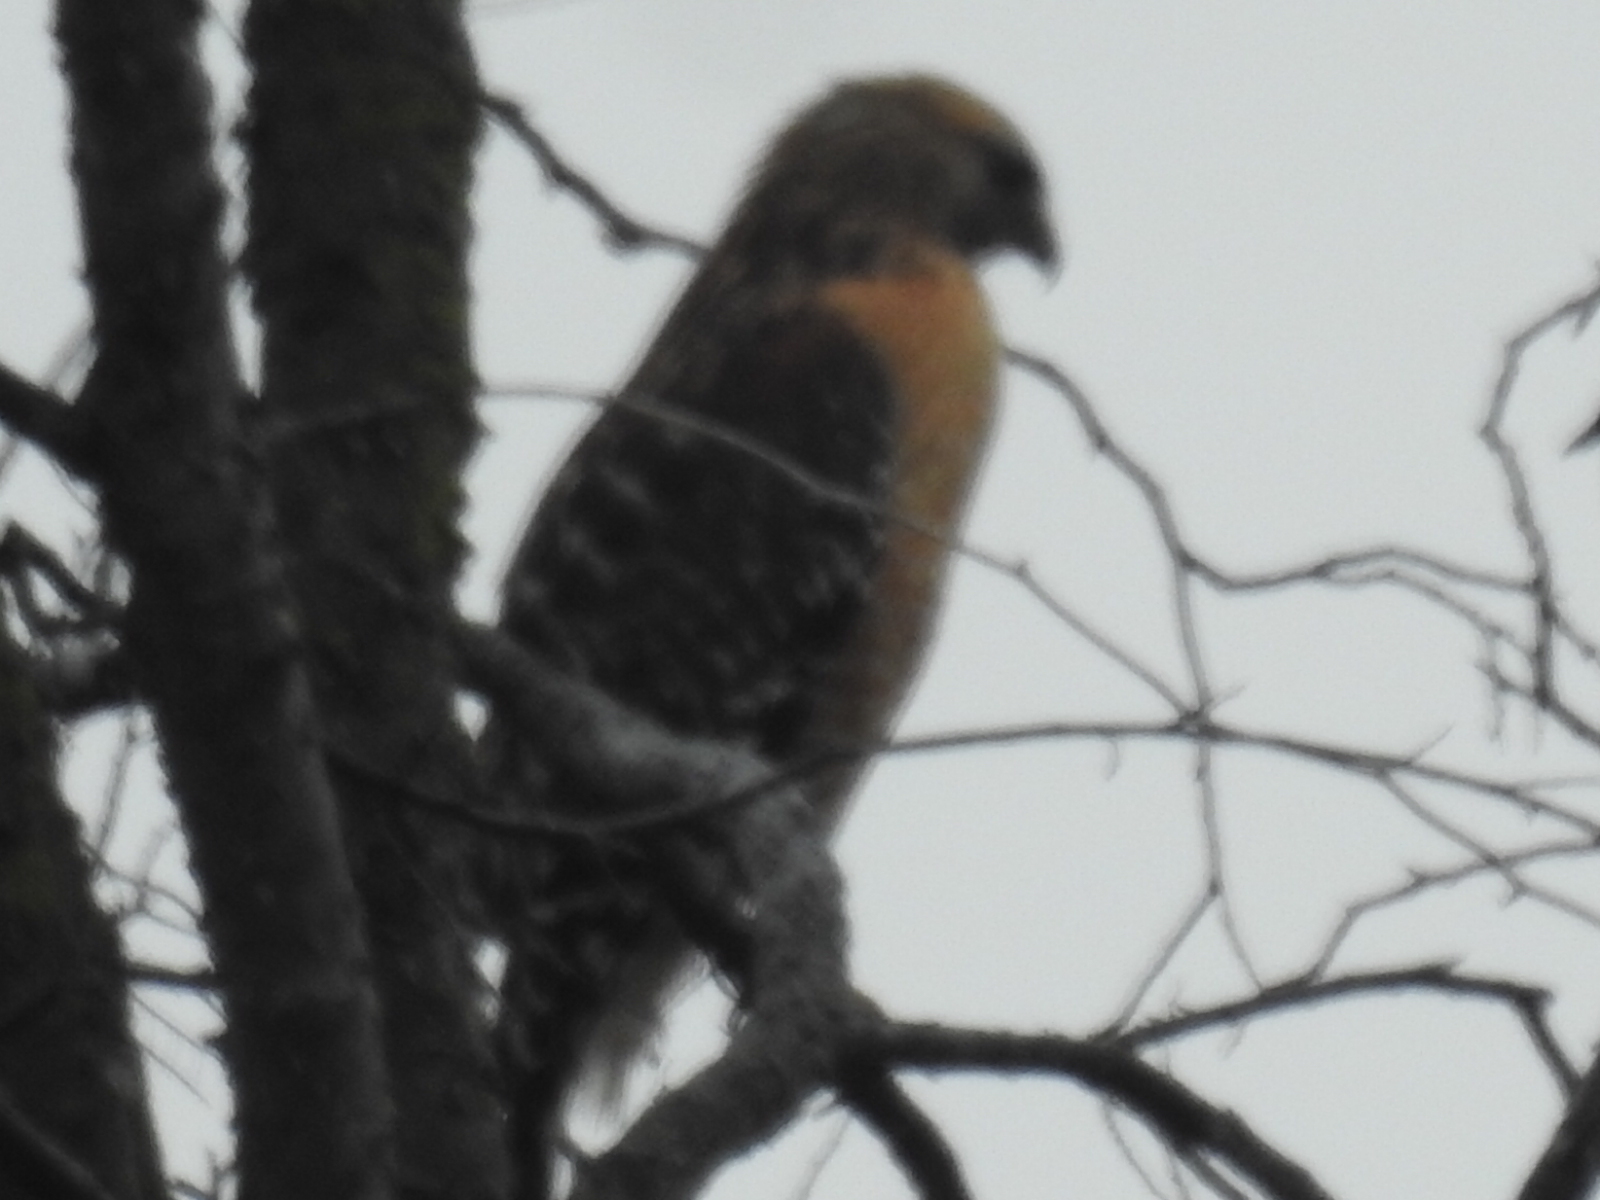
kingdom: Animalia
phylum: Chordata
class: Aves
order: Accipitriformes
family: Accipitridae
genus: Buteo
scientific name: Buteo lineatus
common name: Red-shouldered hawk
